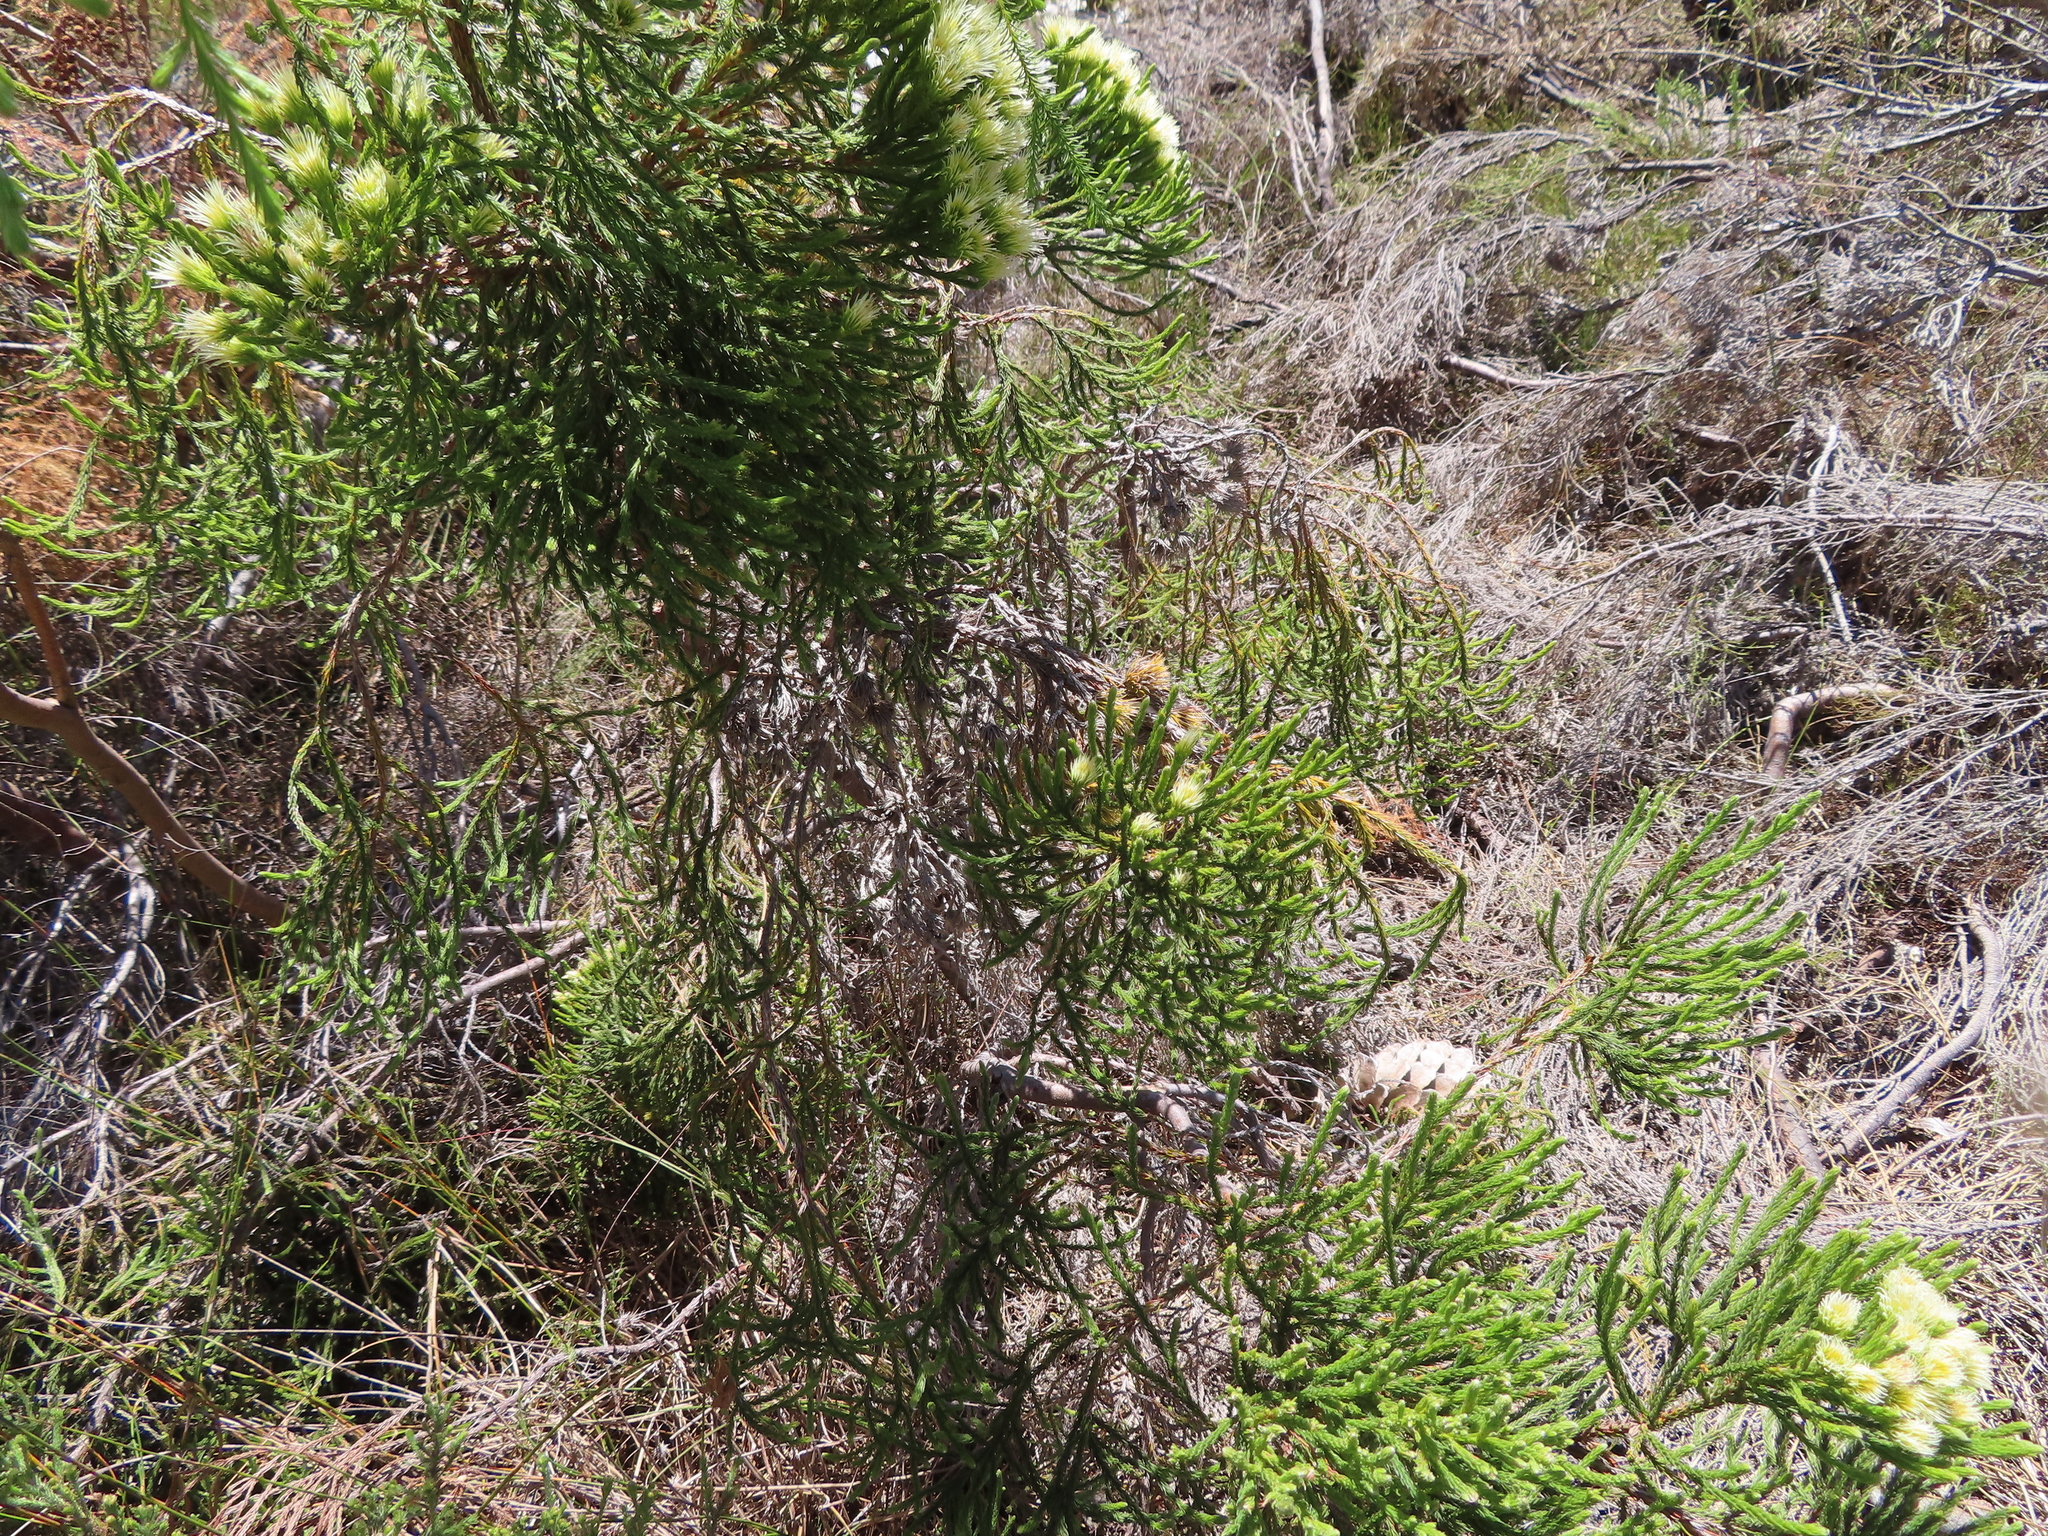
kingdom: Plantae
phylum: Tracheophyta
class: Magnoliopsida
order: Bruniales
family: Bruniaceae
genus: Brunia
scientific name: Brunia paleacea
